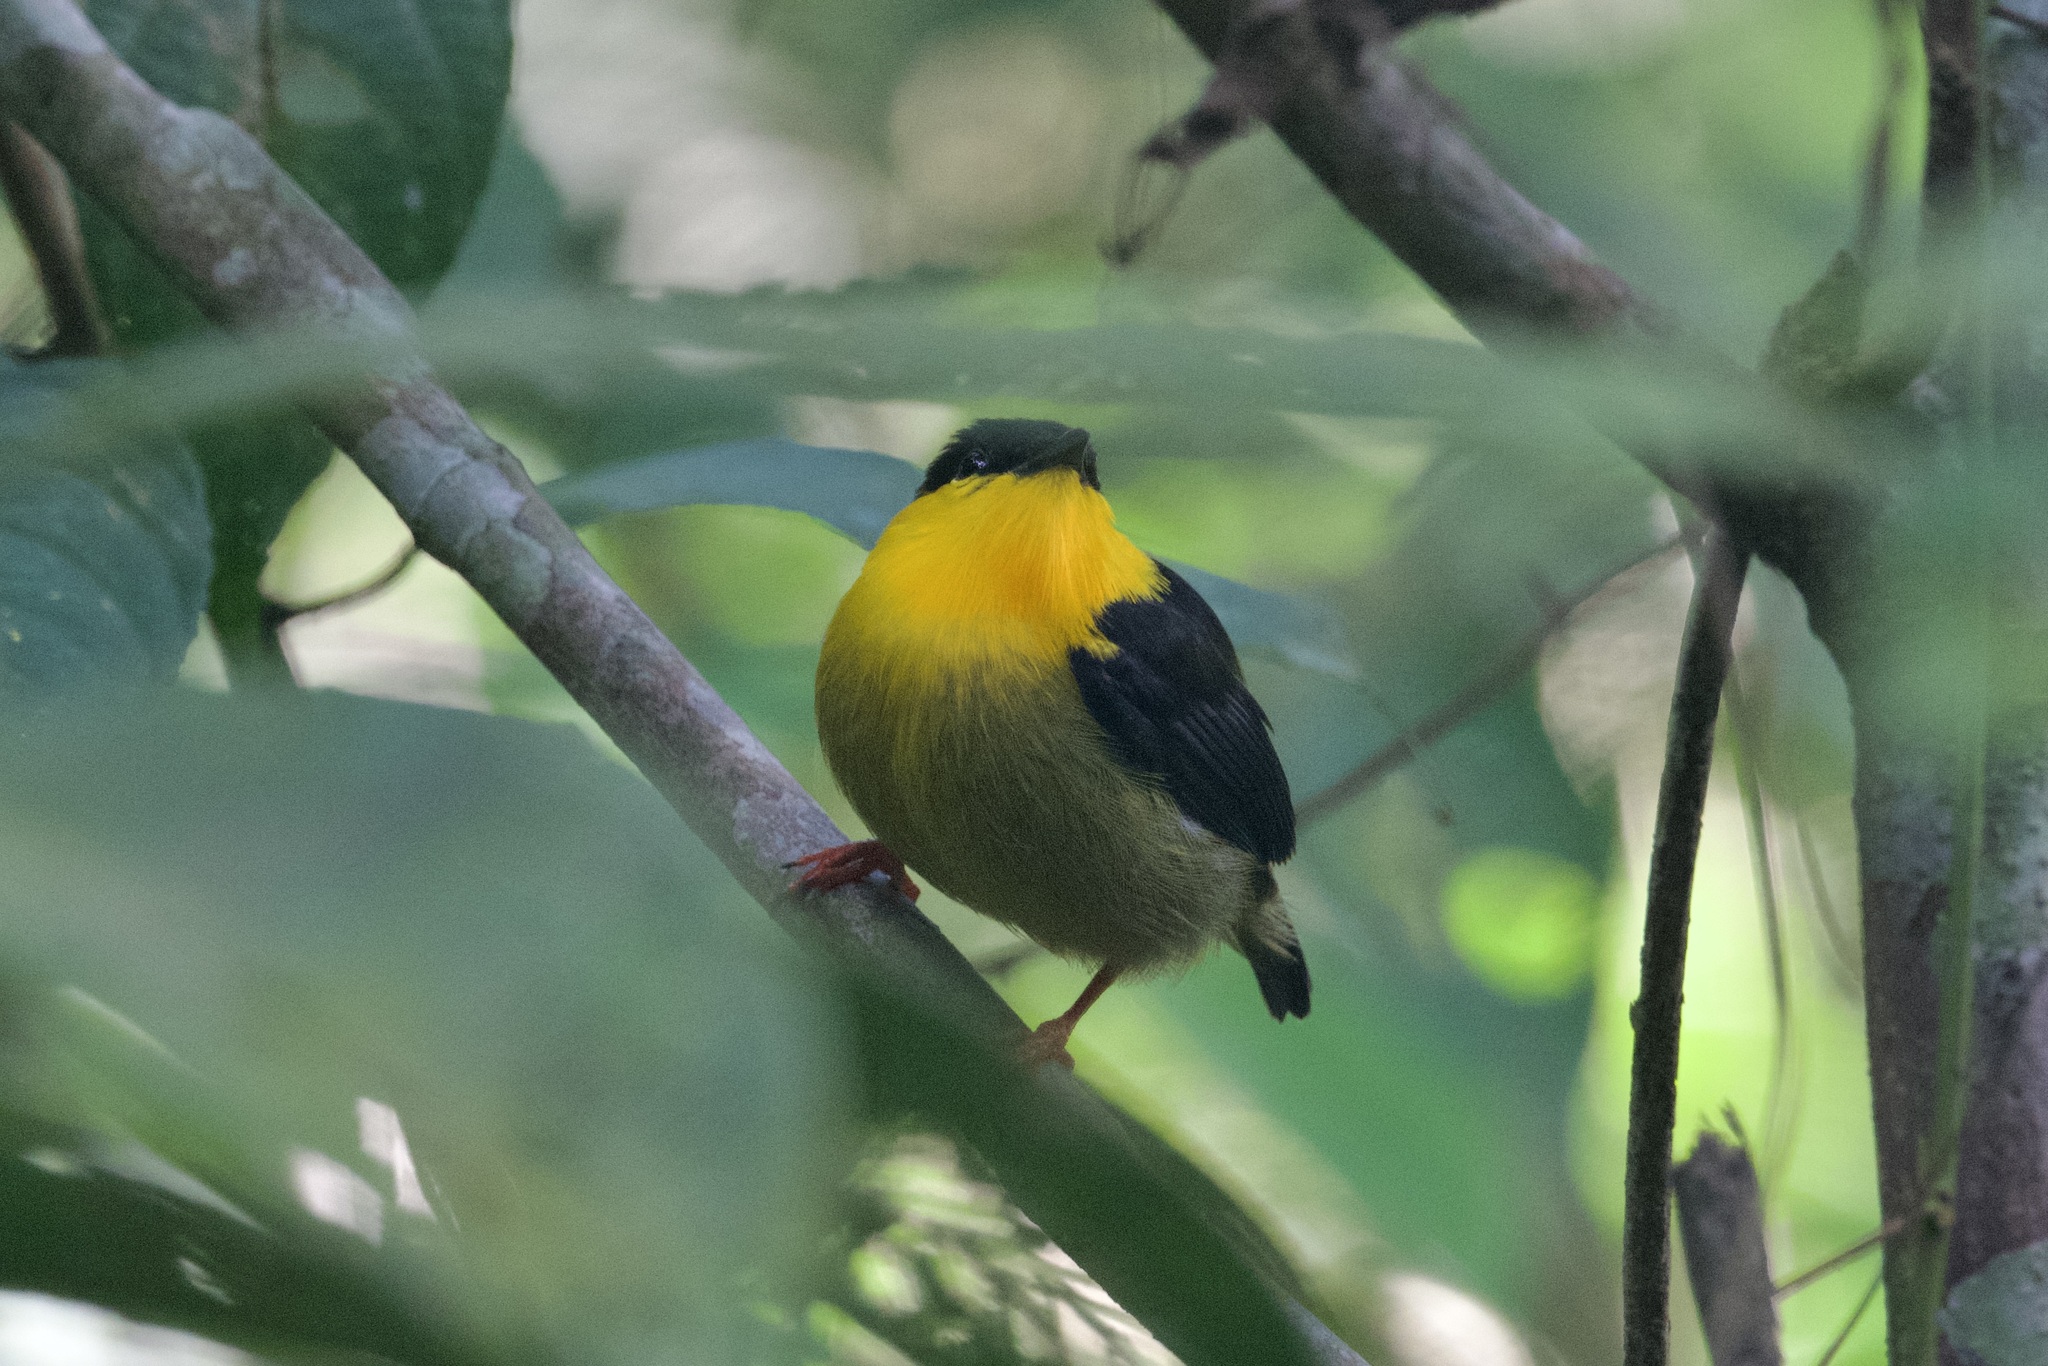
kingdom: Animalia
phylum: Chordata
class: Aves
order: Passeriformes
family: Pipridae
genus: Manacus
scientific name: Manacus vitellinus
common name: Golden-collared manakin
